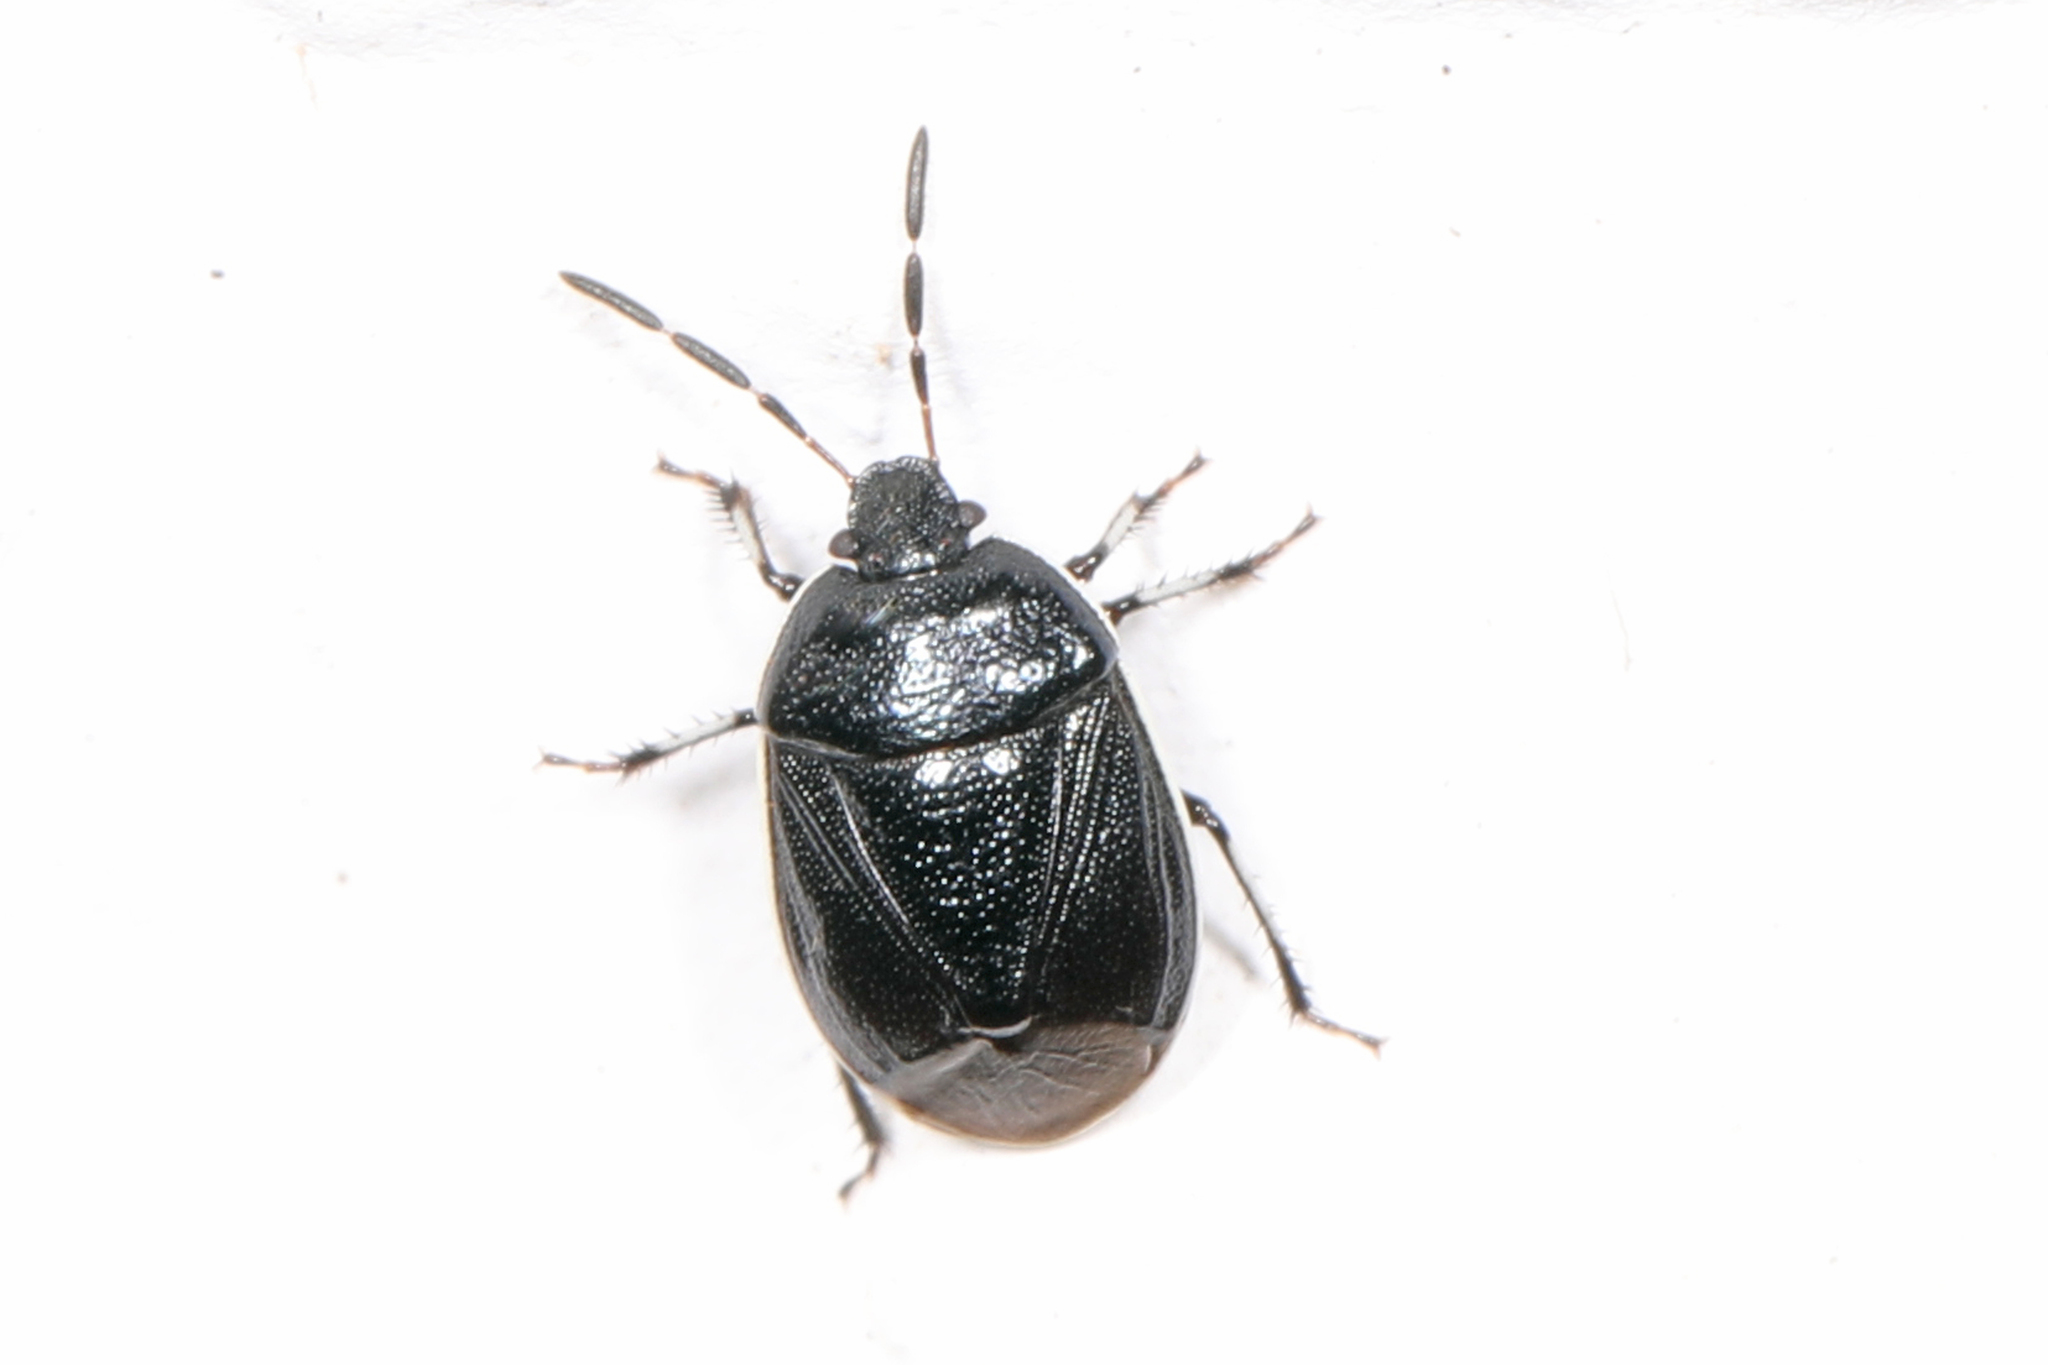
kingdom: Animalia
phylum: Arthropoda
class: Insecta
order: Hemiptera
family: Cydnidae
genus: Sehirus
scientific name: Sehirus cinctus
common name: White-margined burrower bug
